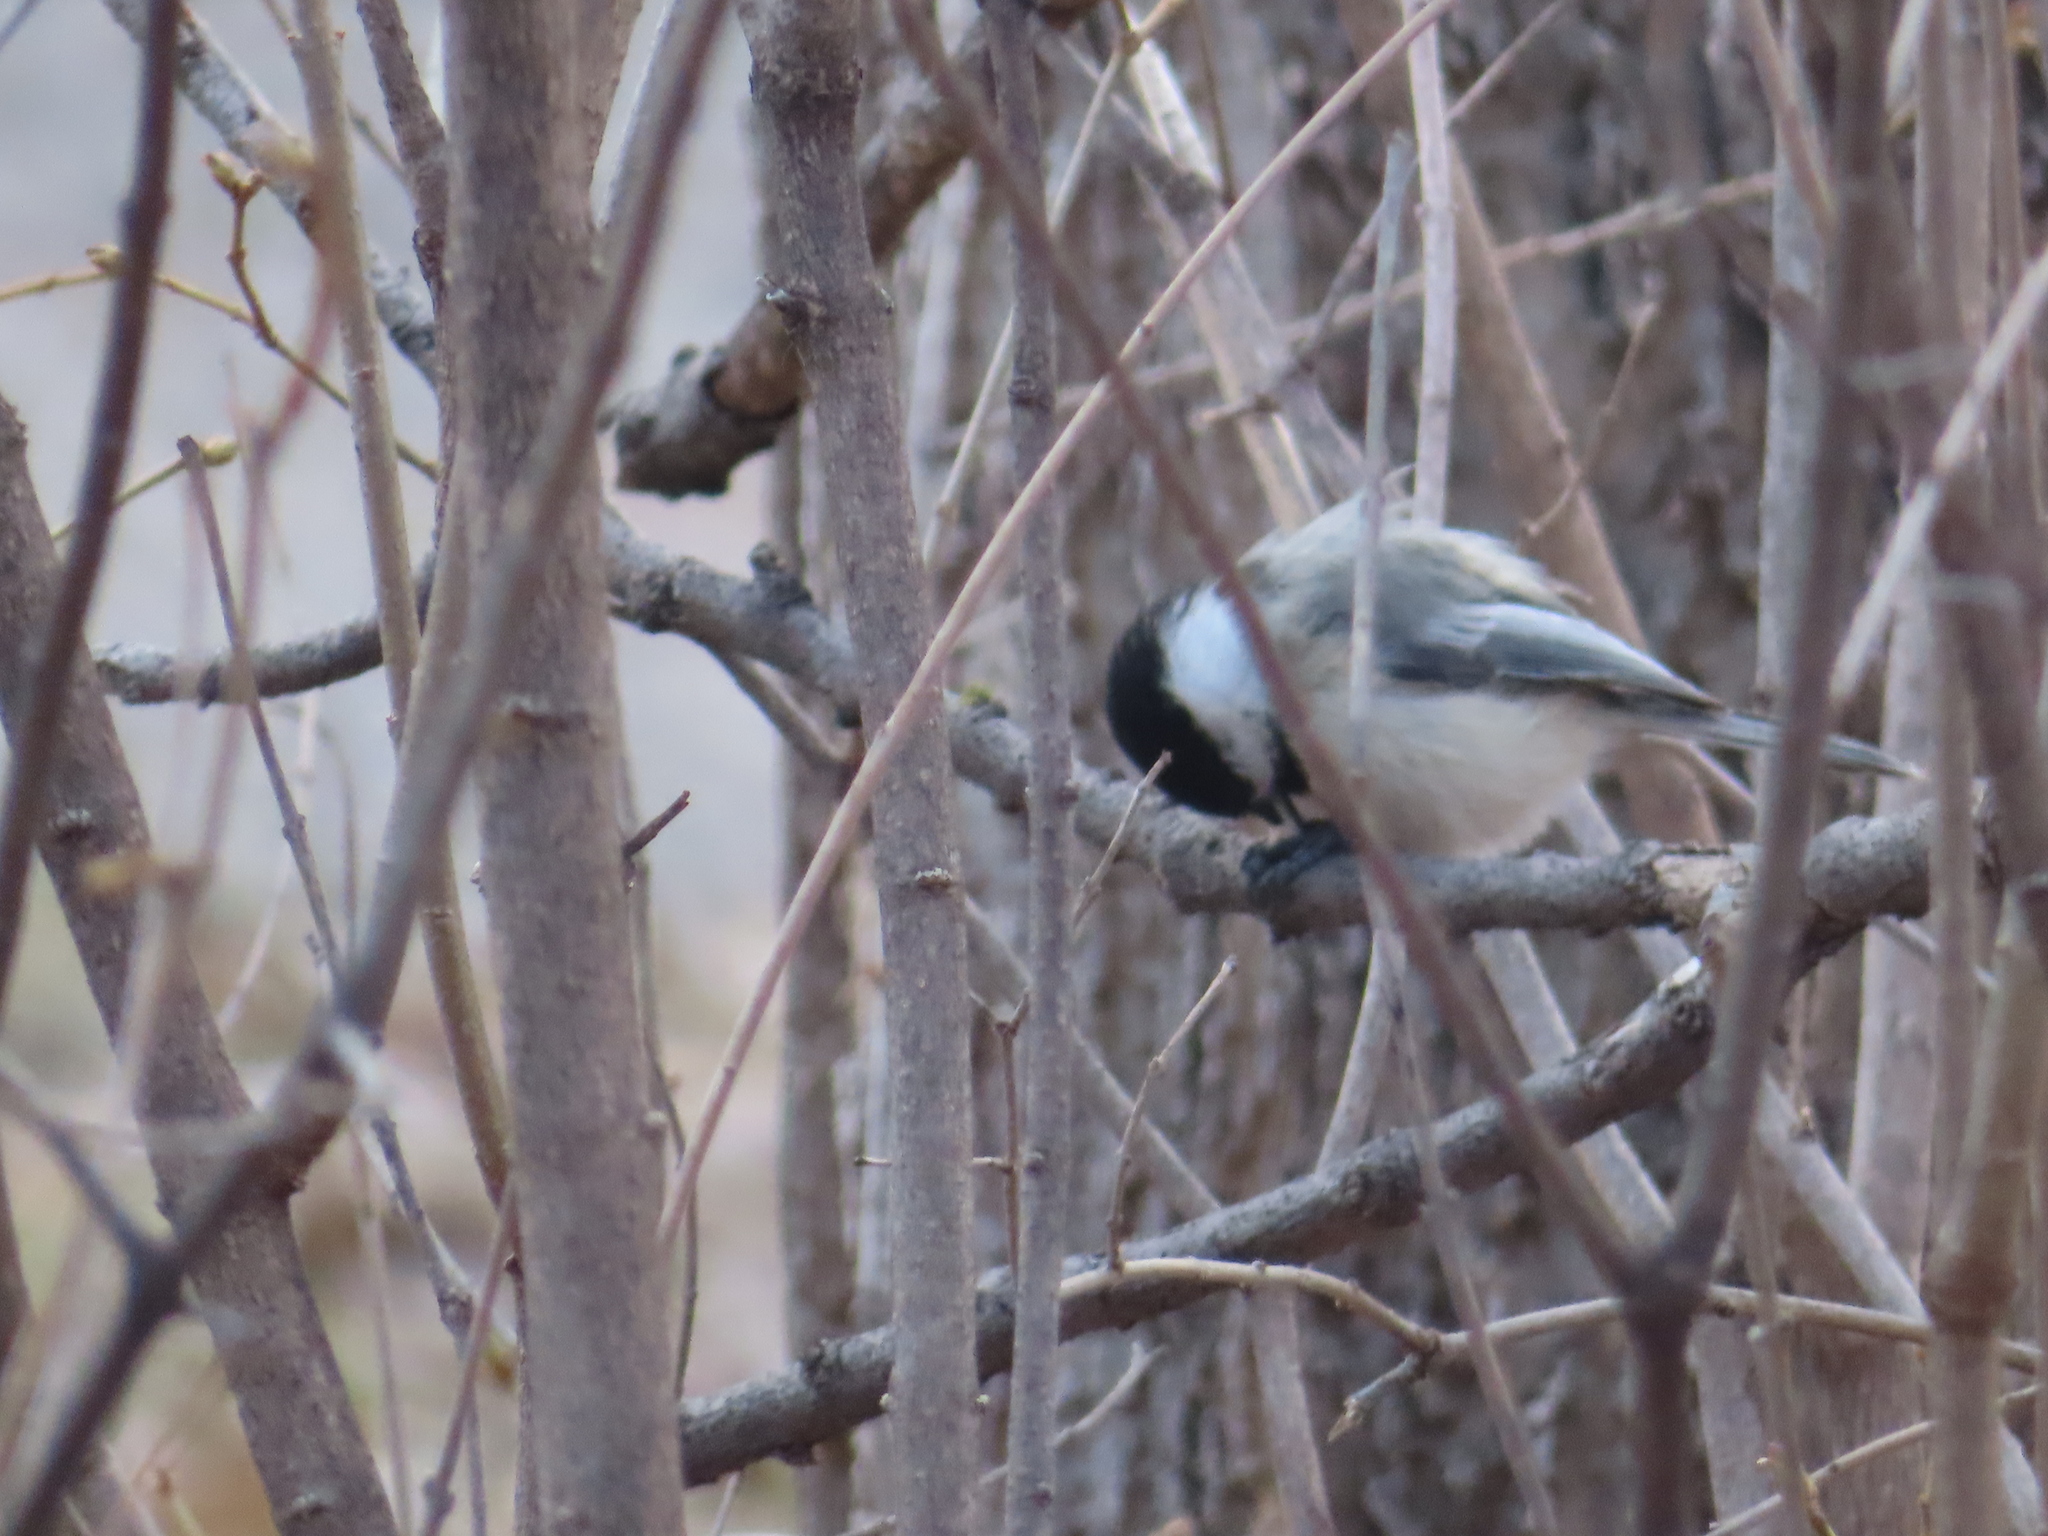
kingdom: Animalia
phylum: Chordata
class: Aves
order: Passeriformes
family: Paridae
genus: Poecile
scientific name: Poecile atricapillus
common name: Black-capped chickadee
